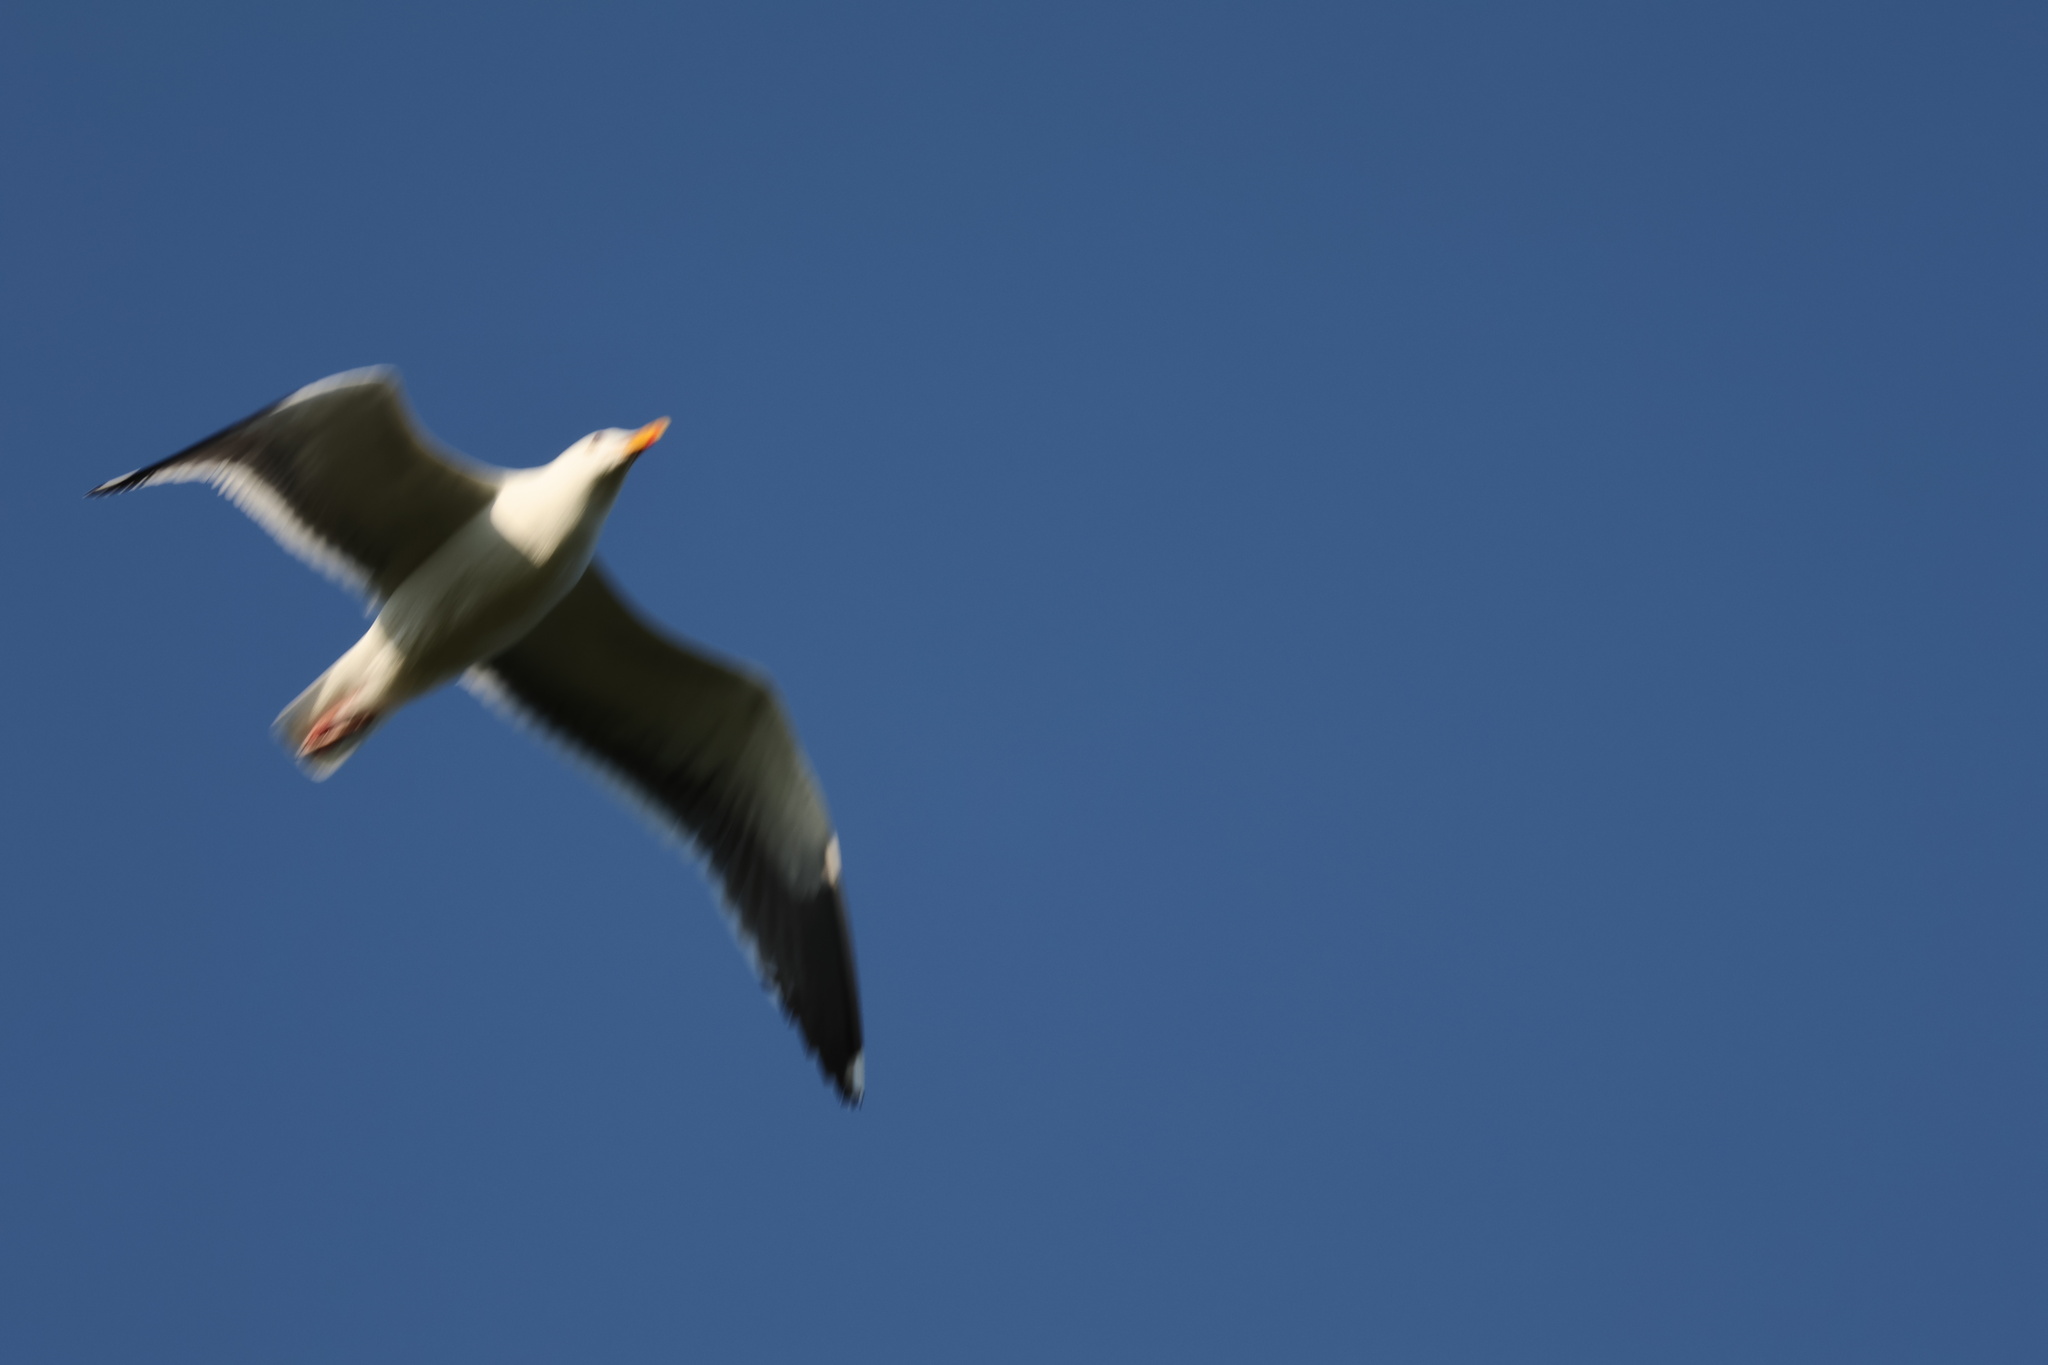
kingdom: Animalia
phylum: Chordata
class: Aves
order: Charadriiformes
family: Laridae
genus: Larus
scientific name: Larus occidentalis
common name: Western gull
